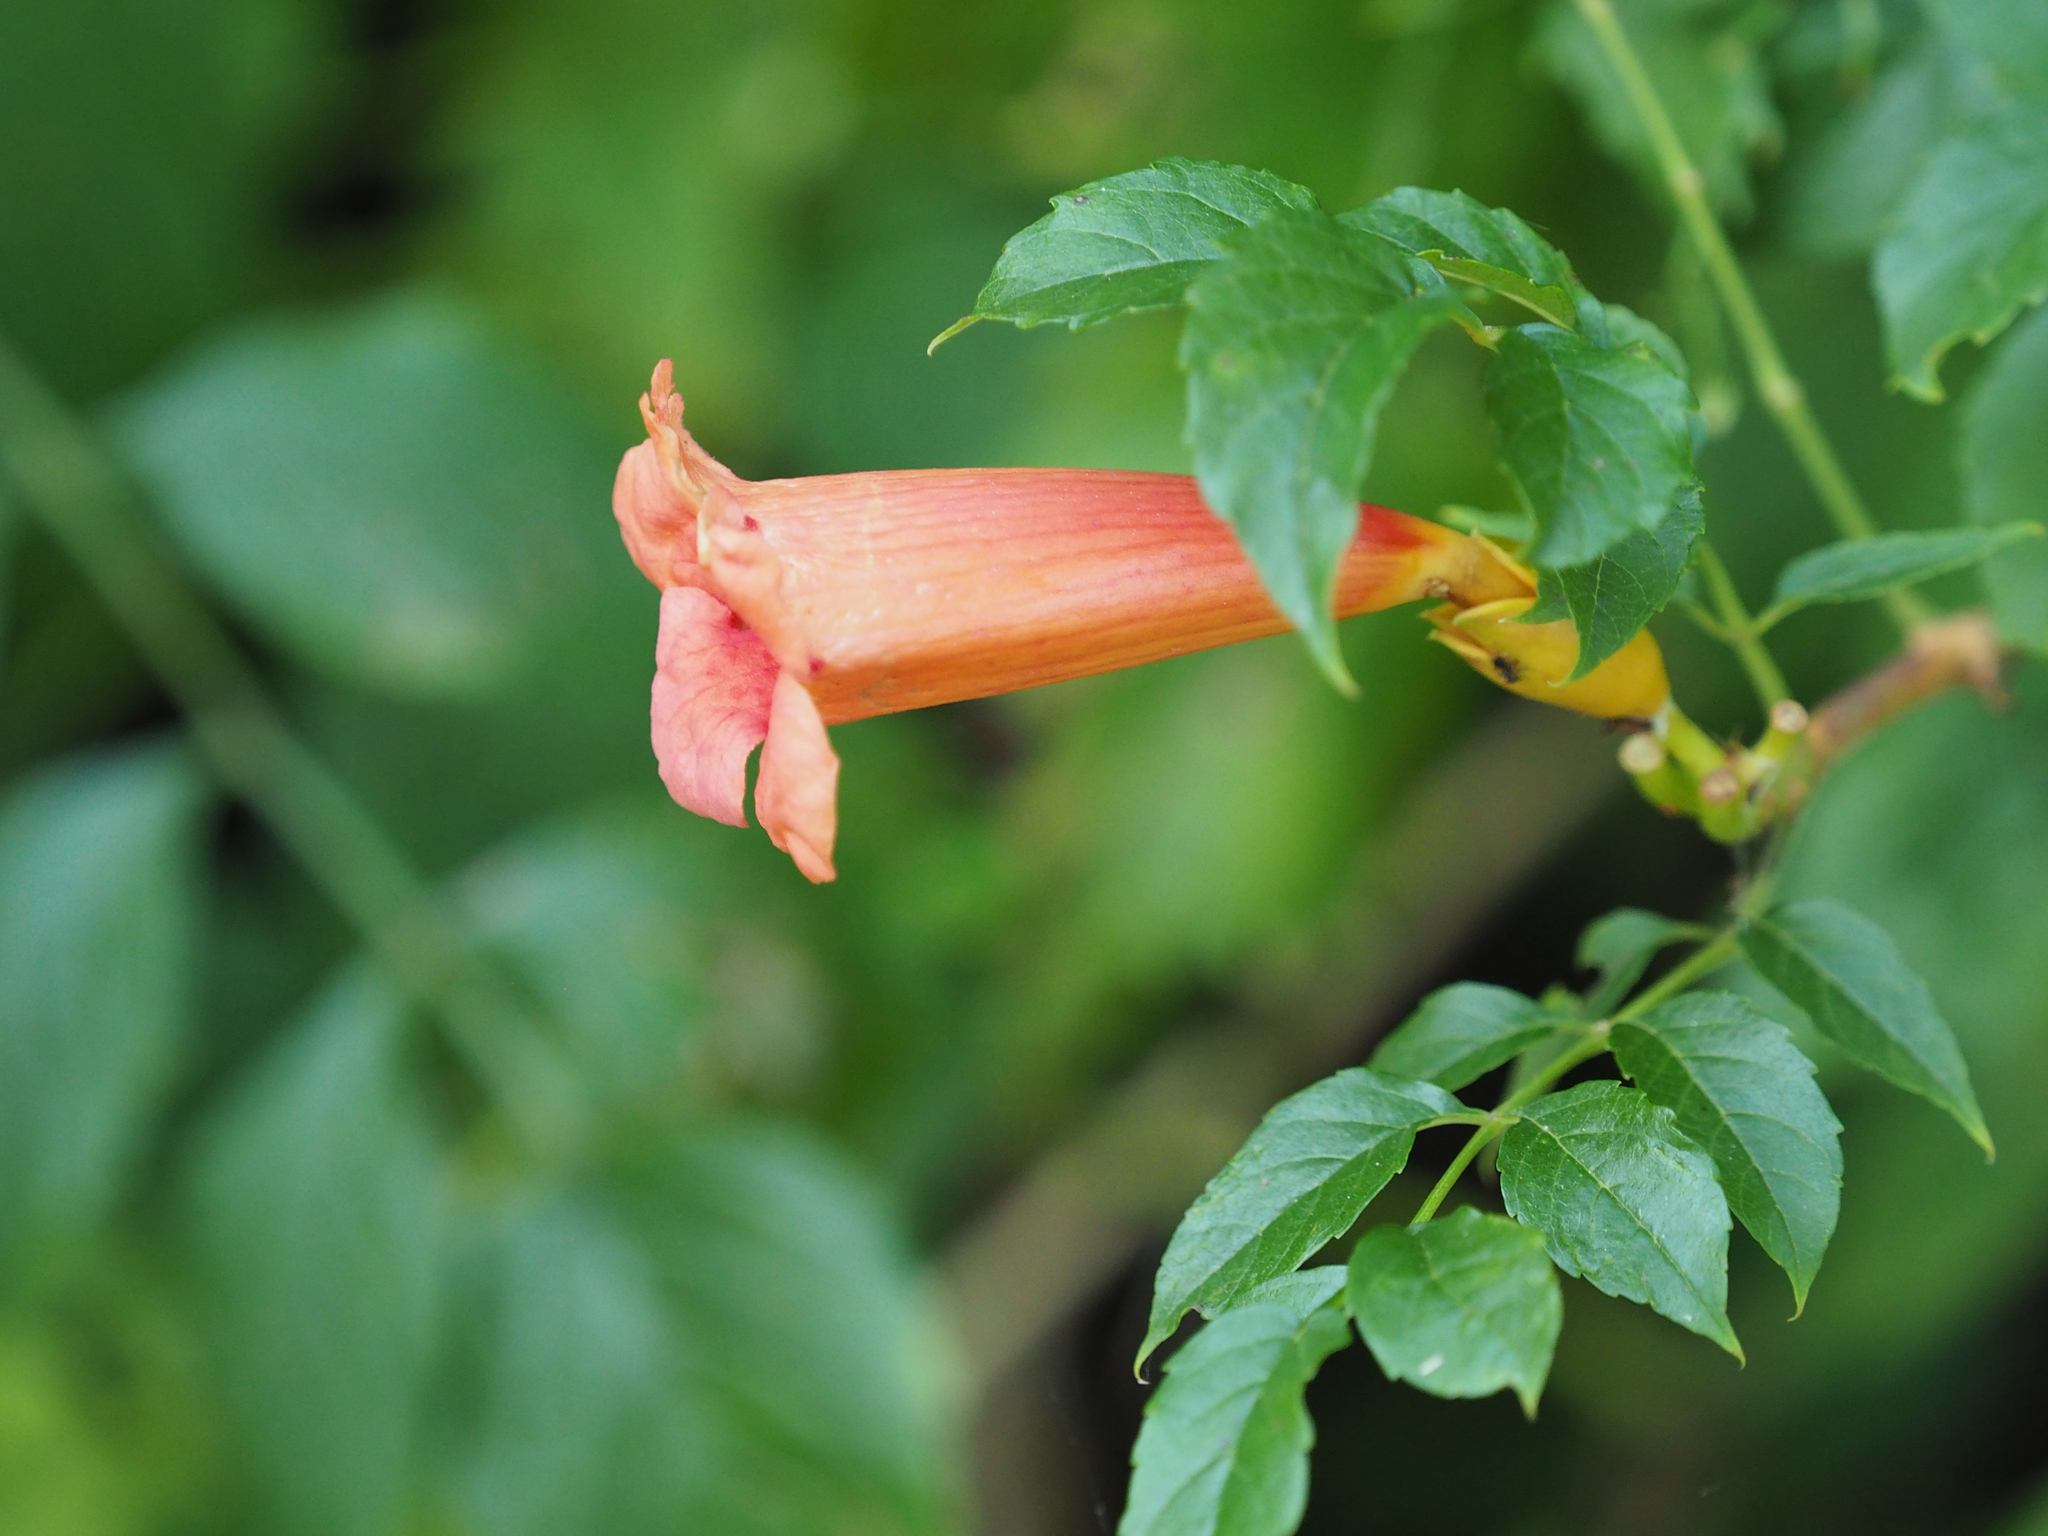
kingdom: Plantae
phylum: Tracheophyta
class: Magnoliopsida
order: Lamiales
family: Bignoniaceae
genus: Campsis
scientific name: Campsis radicans
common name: Trumpet-creeper
